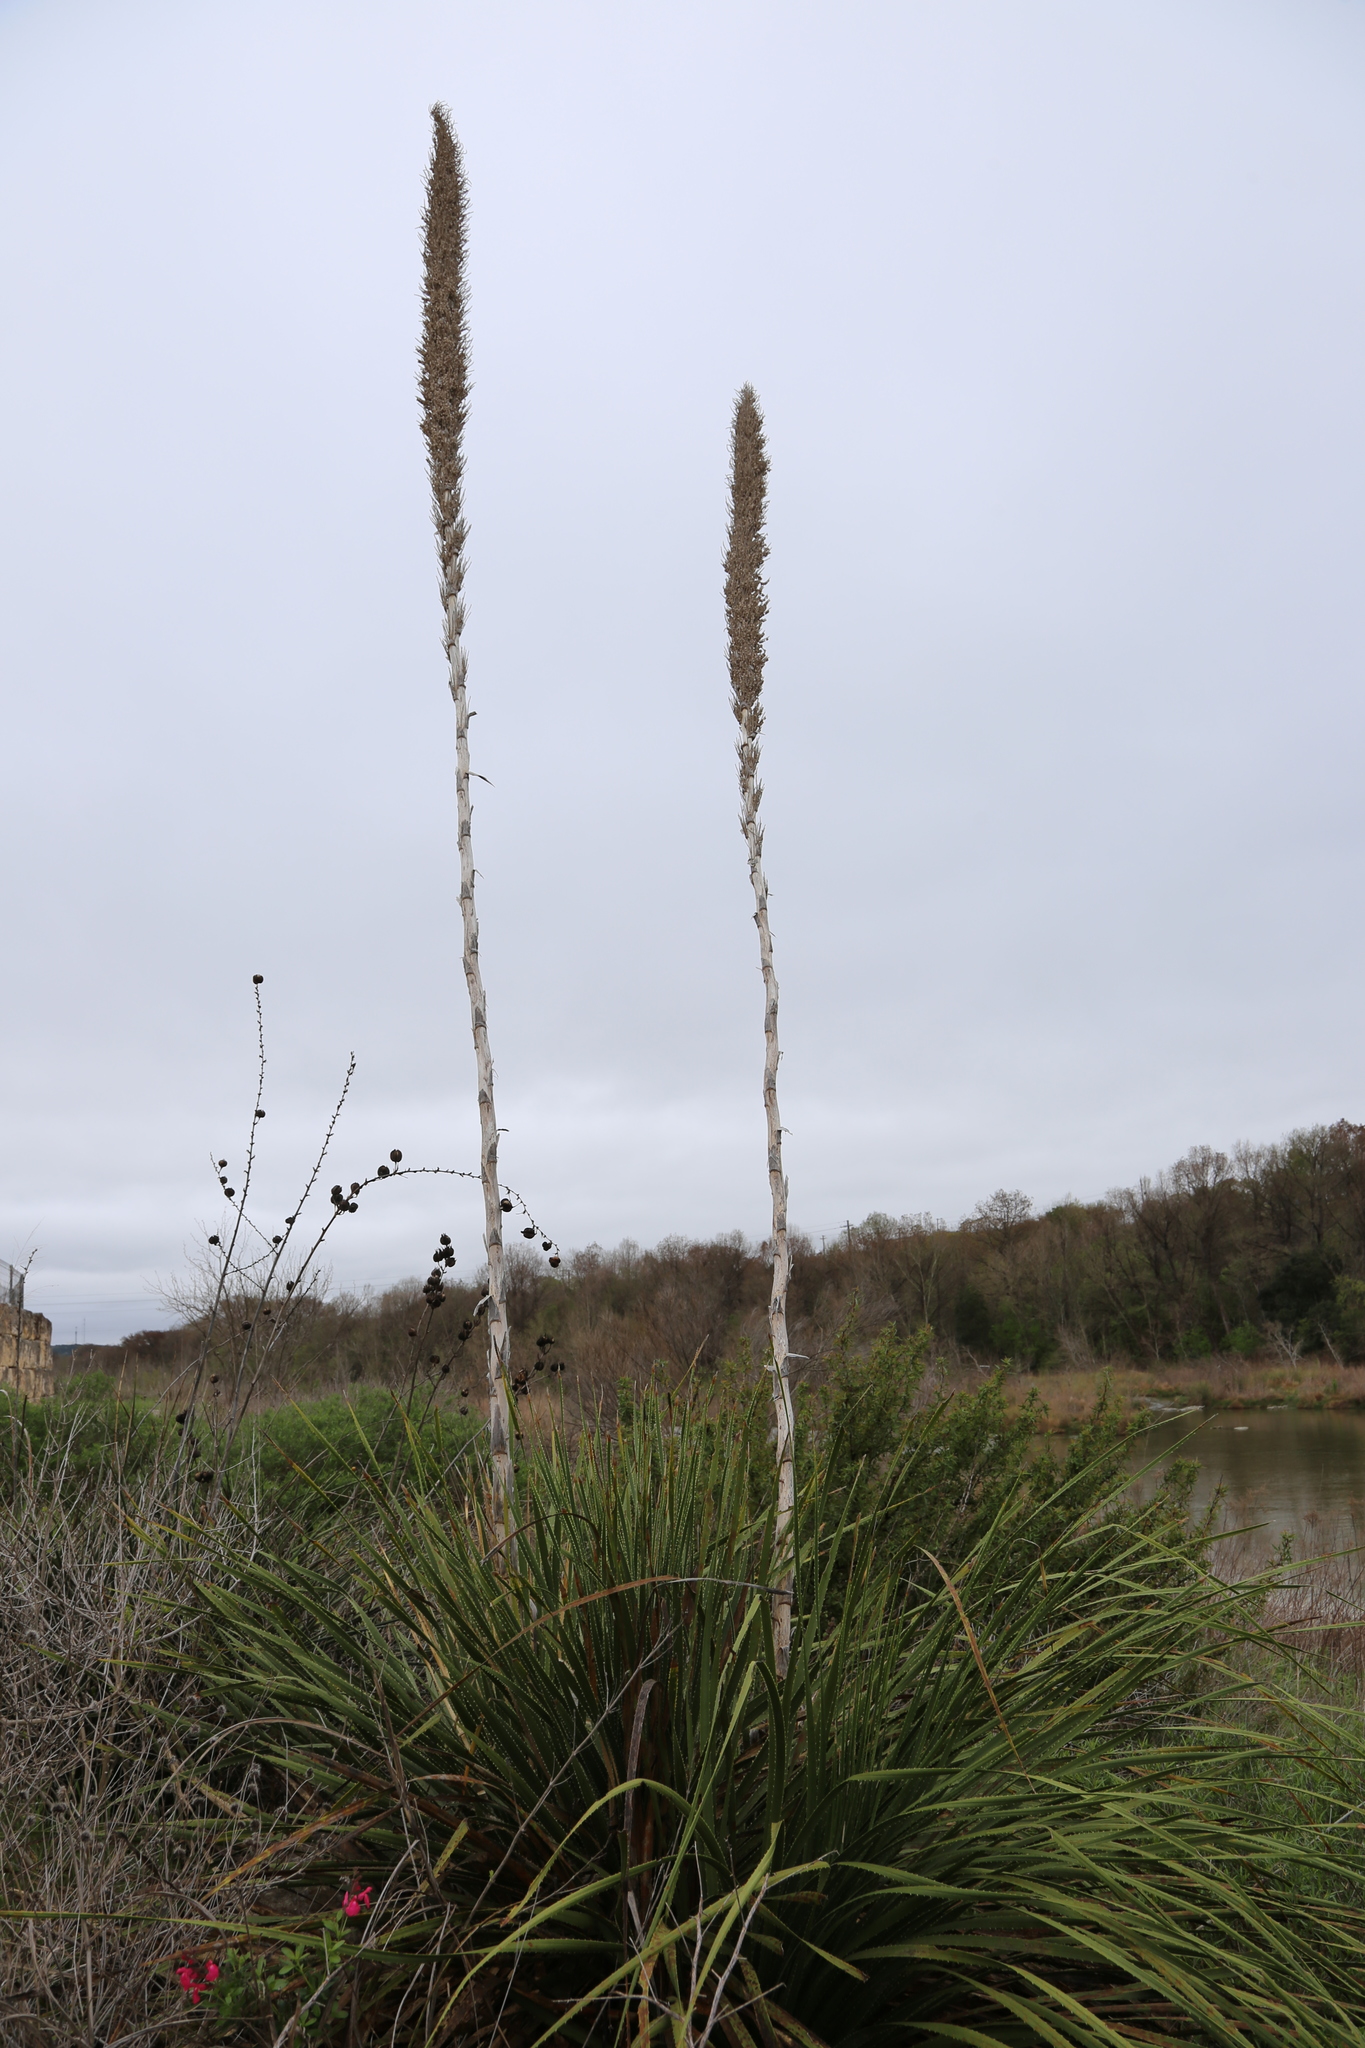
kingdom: Plantae
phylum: Tracheophyta
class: Liliopsida
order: Asparagales
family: Asparagaceae
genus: Dasylirion
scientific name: Dasylirion texanum
